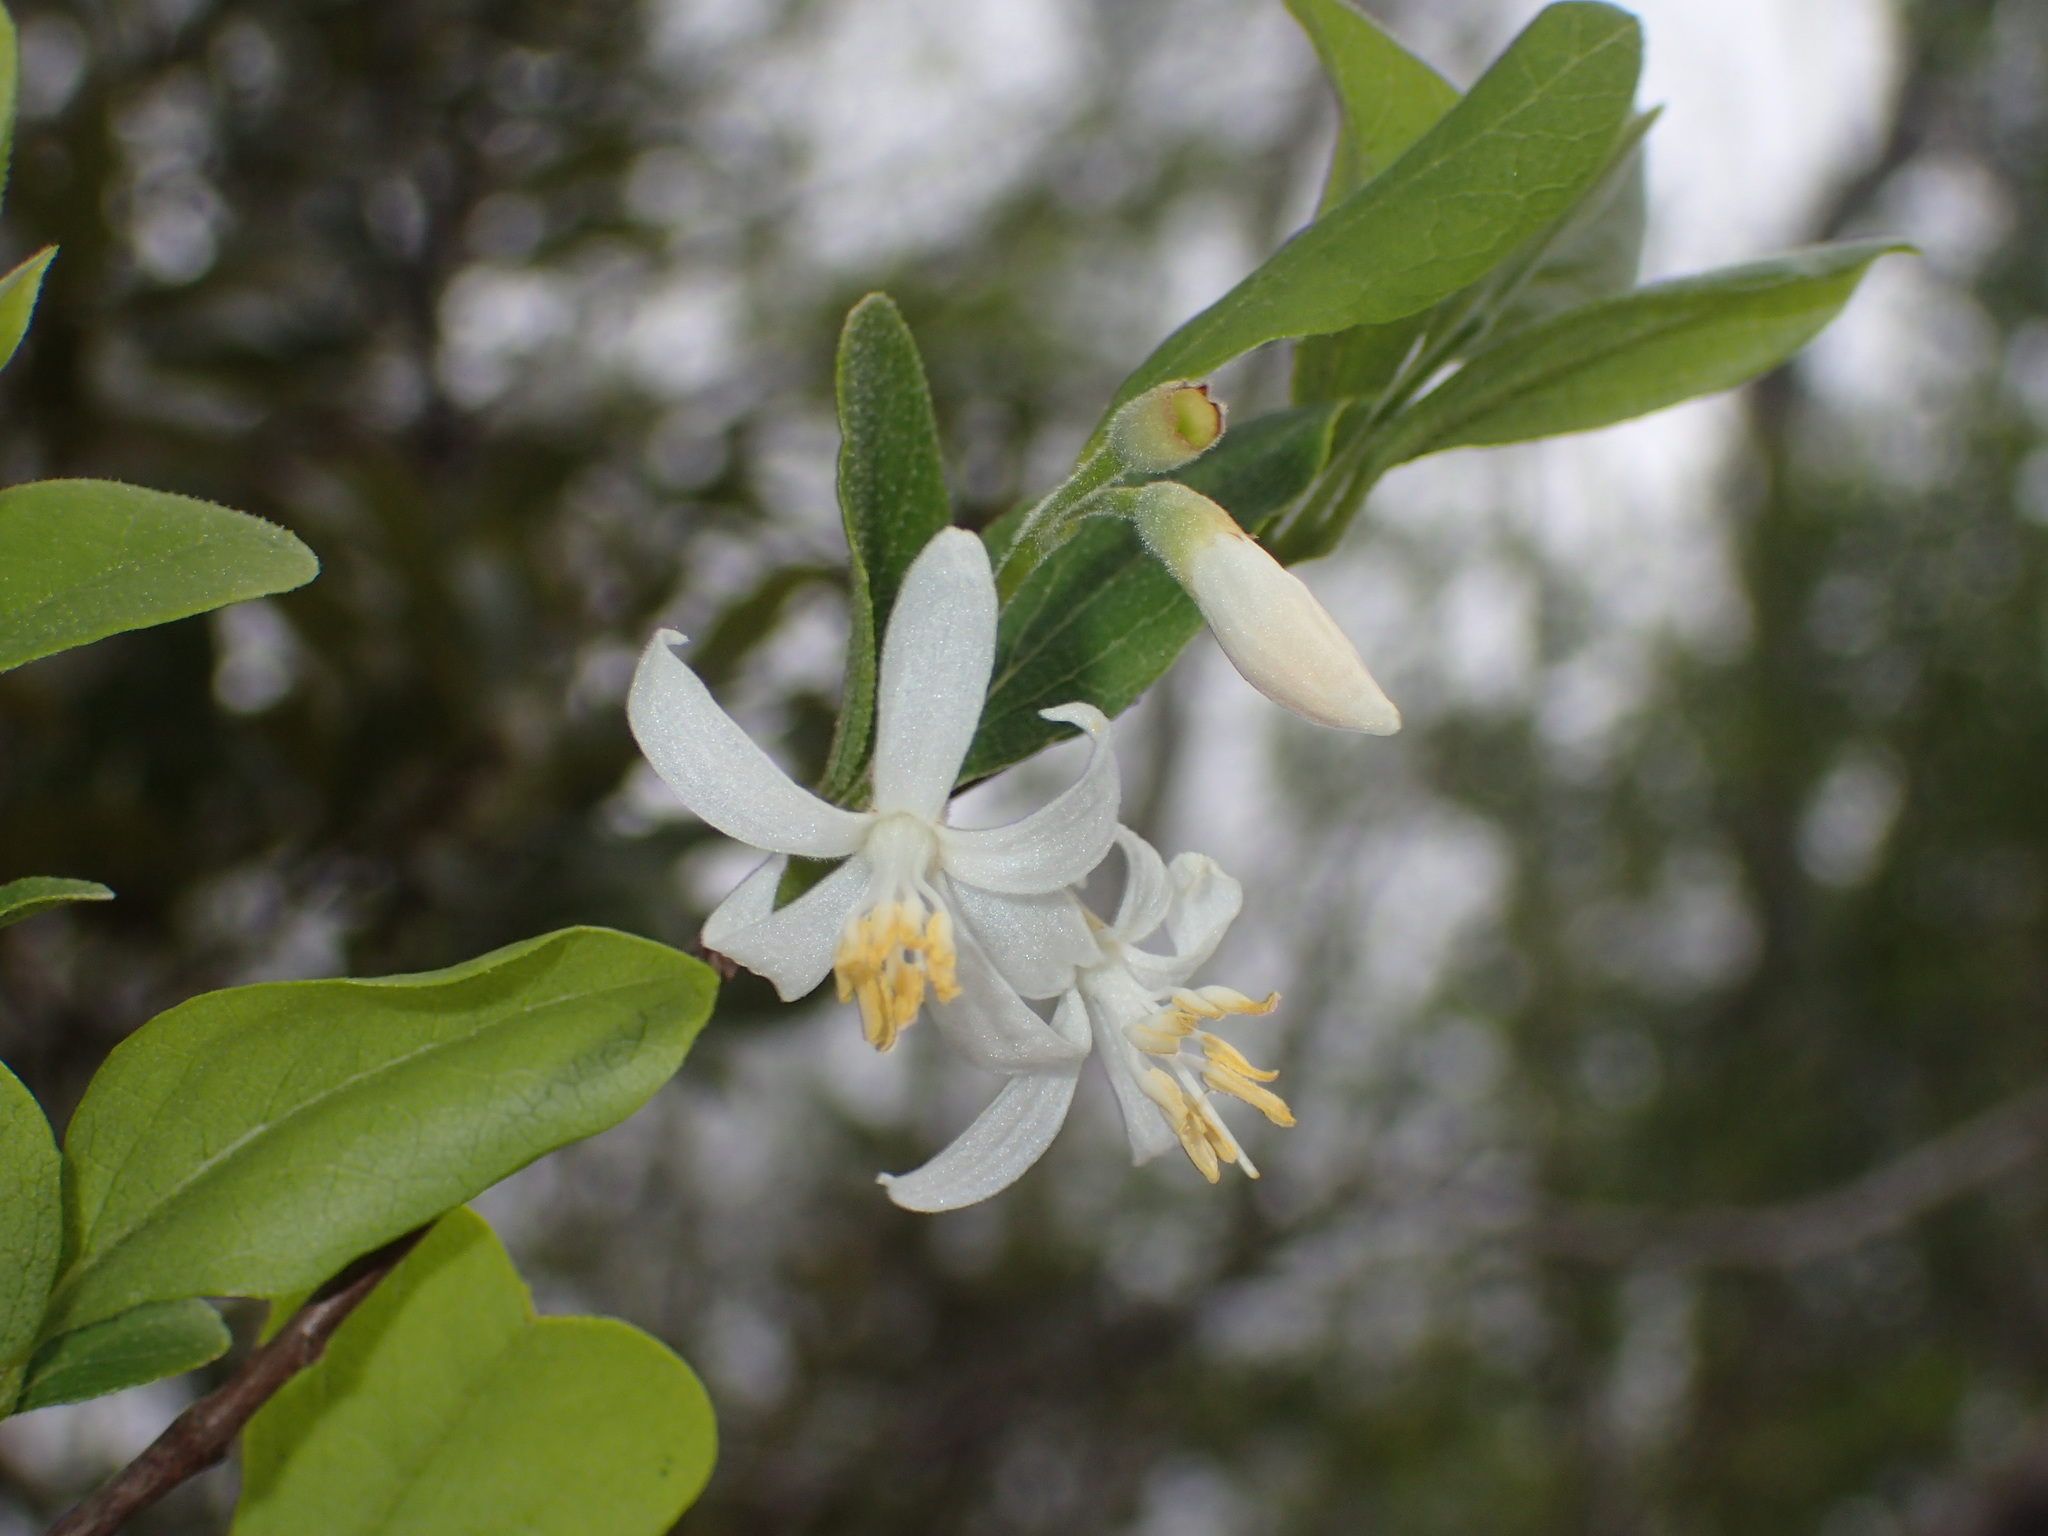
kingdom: Plantae
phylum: Tracheophyta
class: Magnoliopsida
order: Ericales
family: Styracaceae
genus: Styrax
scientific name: Styrax americanus
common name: American snowbell
